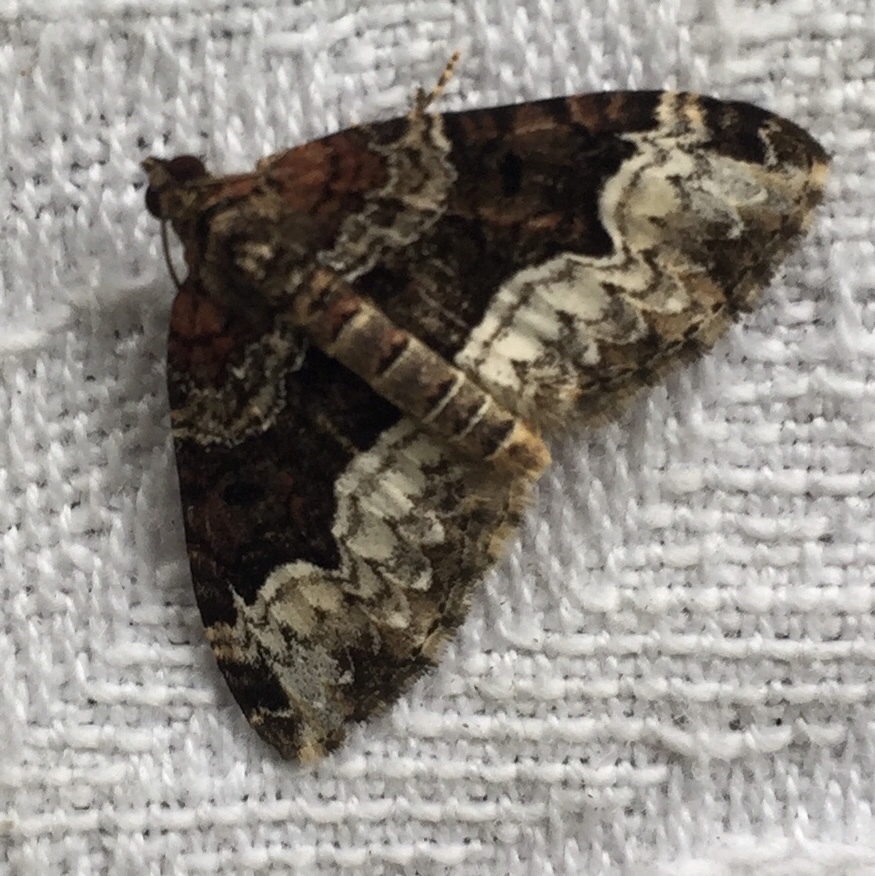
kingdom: Animalia
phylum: Arthropoda
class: Insecta
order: Lepidoptera
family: Geometridae
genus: Euphyia
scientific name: Euphyia intermediata
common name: Sharp-angled carpet
